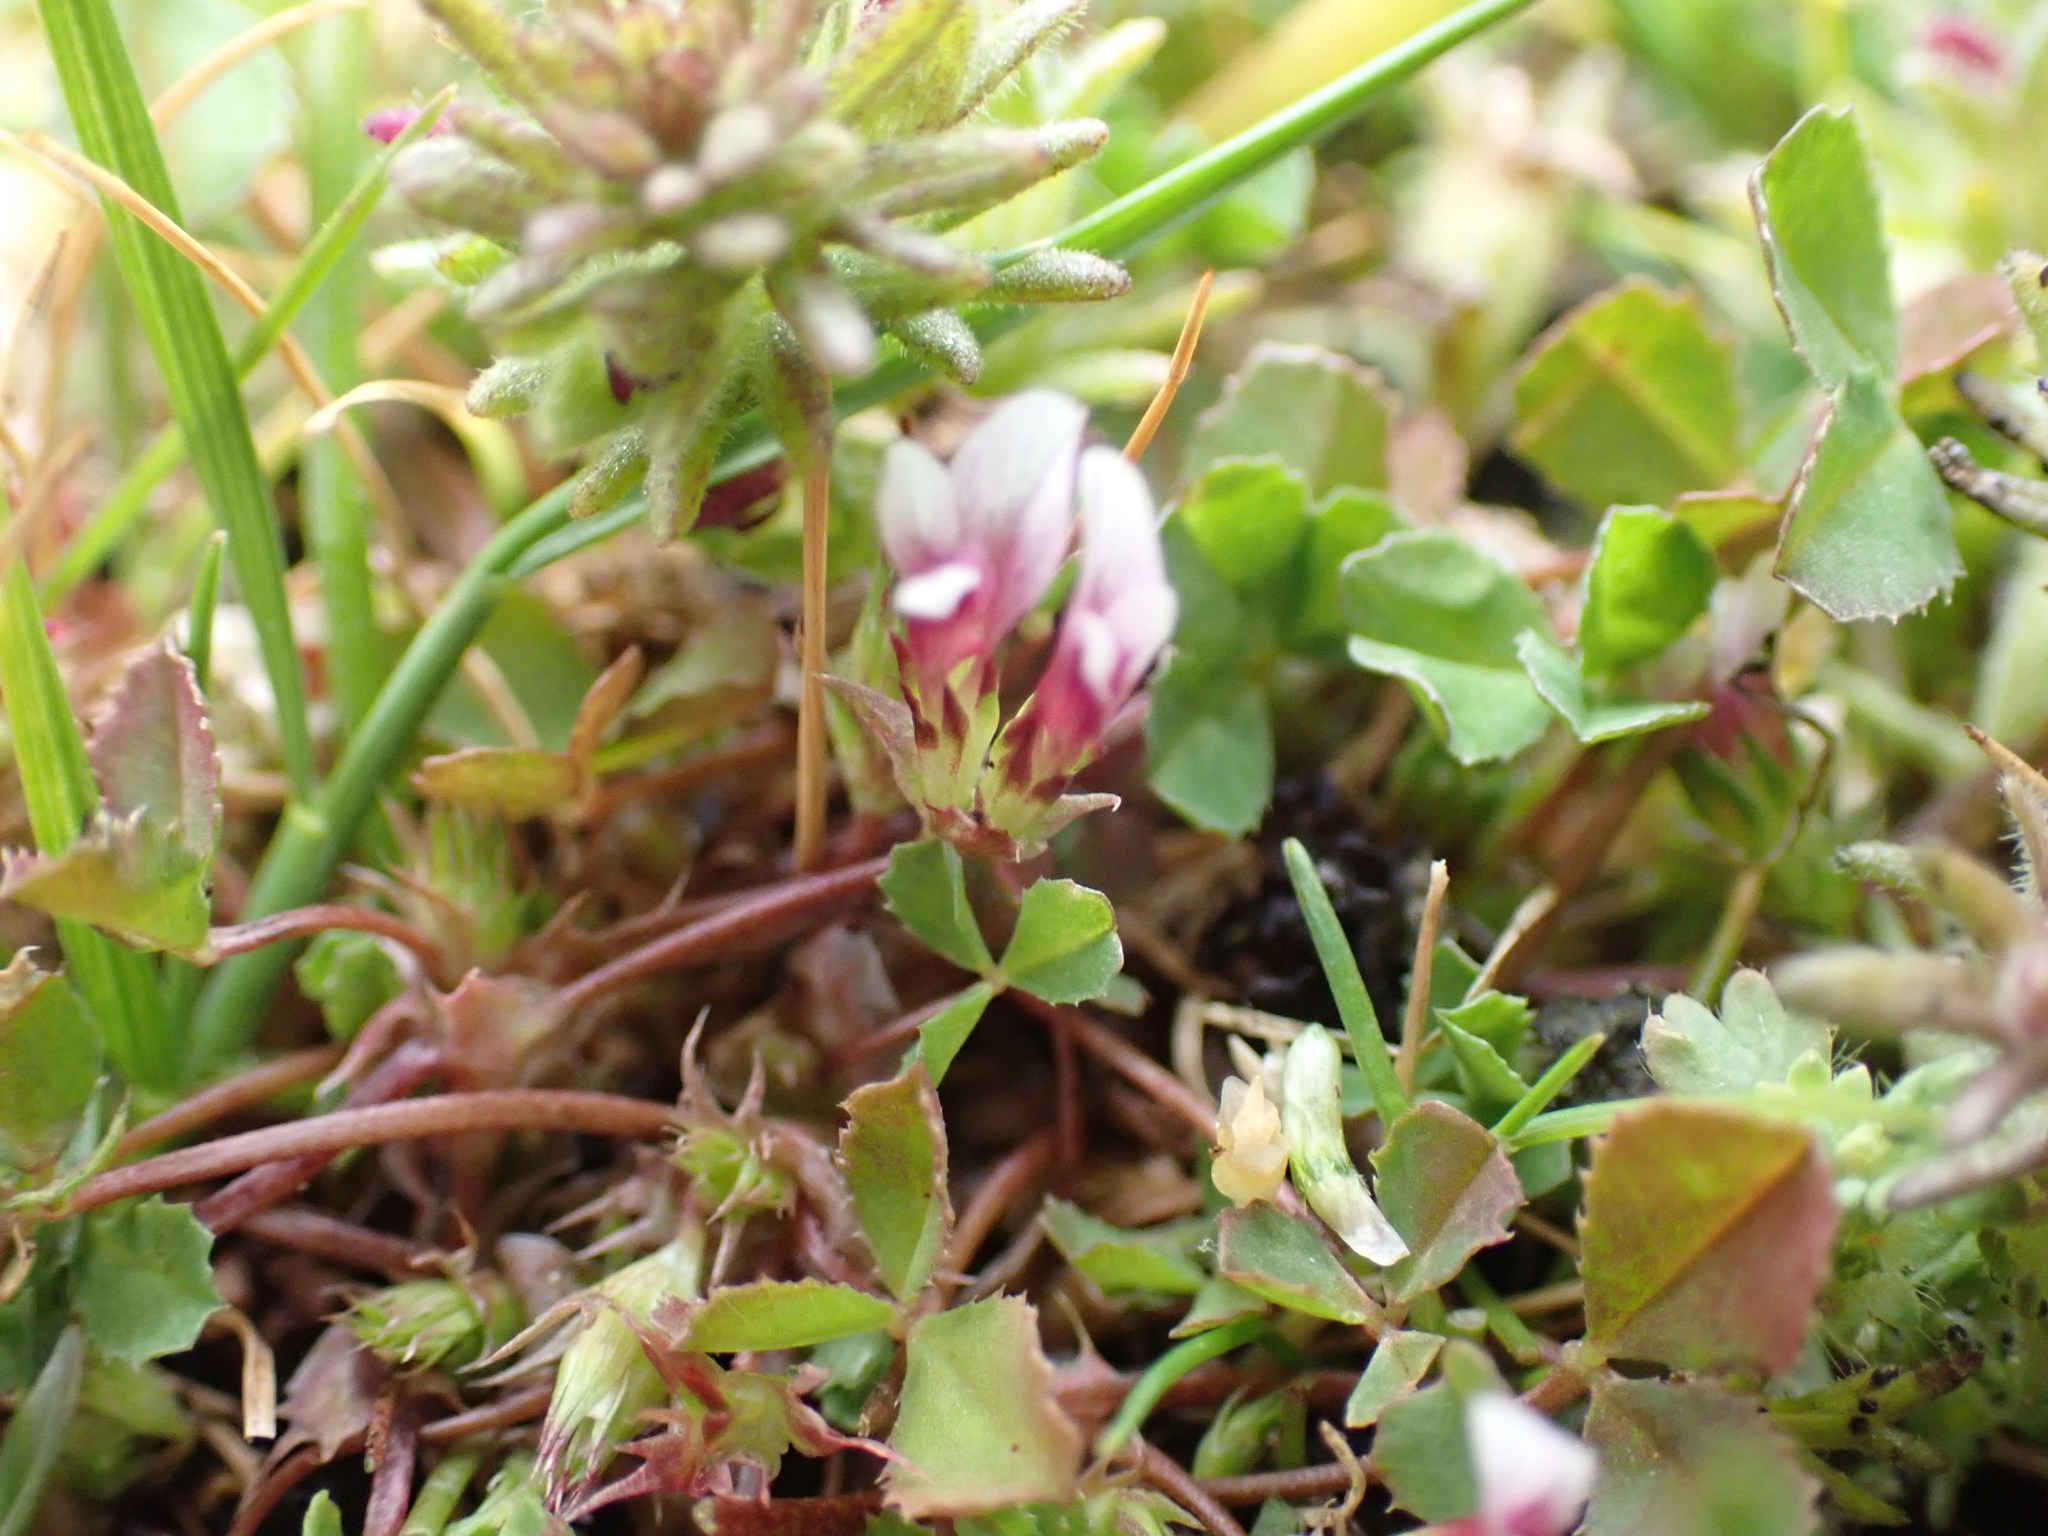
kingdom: Plantae
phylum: Tracheophyta
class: Magnoliopsida
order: Fabales
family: Fabaceae
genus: Trifolium
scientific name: Trifolium variegatum
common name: Whitetip clover
